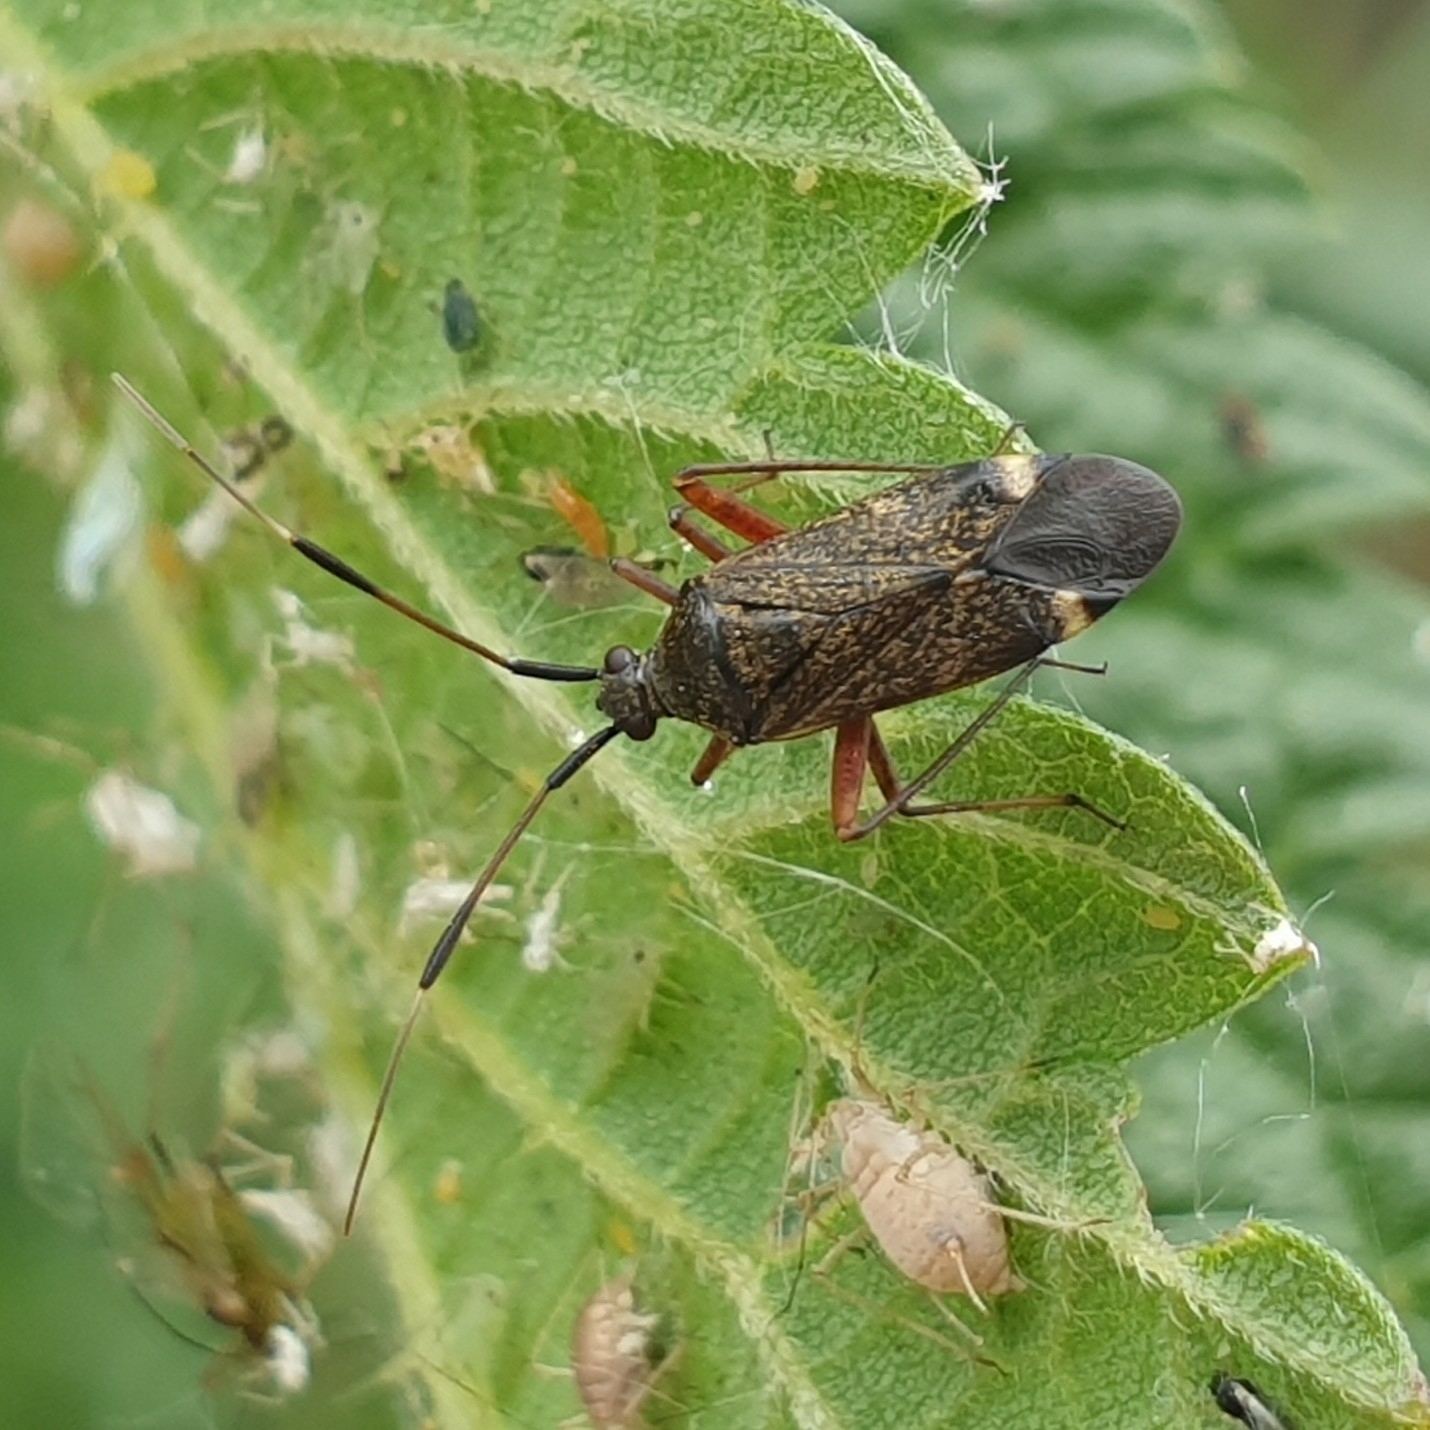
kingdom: Animalia
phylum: Arthropoda
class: Insecta
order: Hemiptera
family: Miridae
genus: Closterotomus
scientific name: Closterotomus biclavatus
